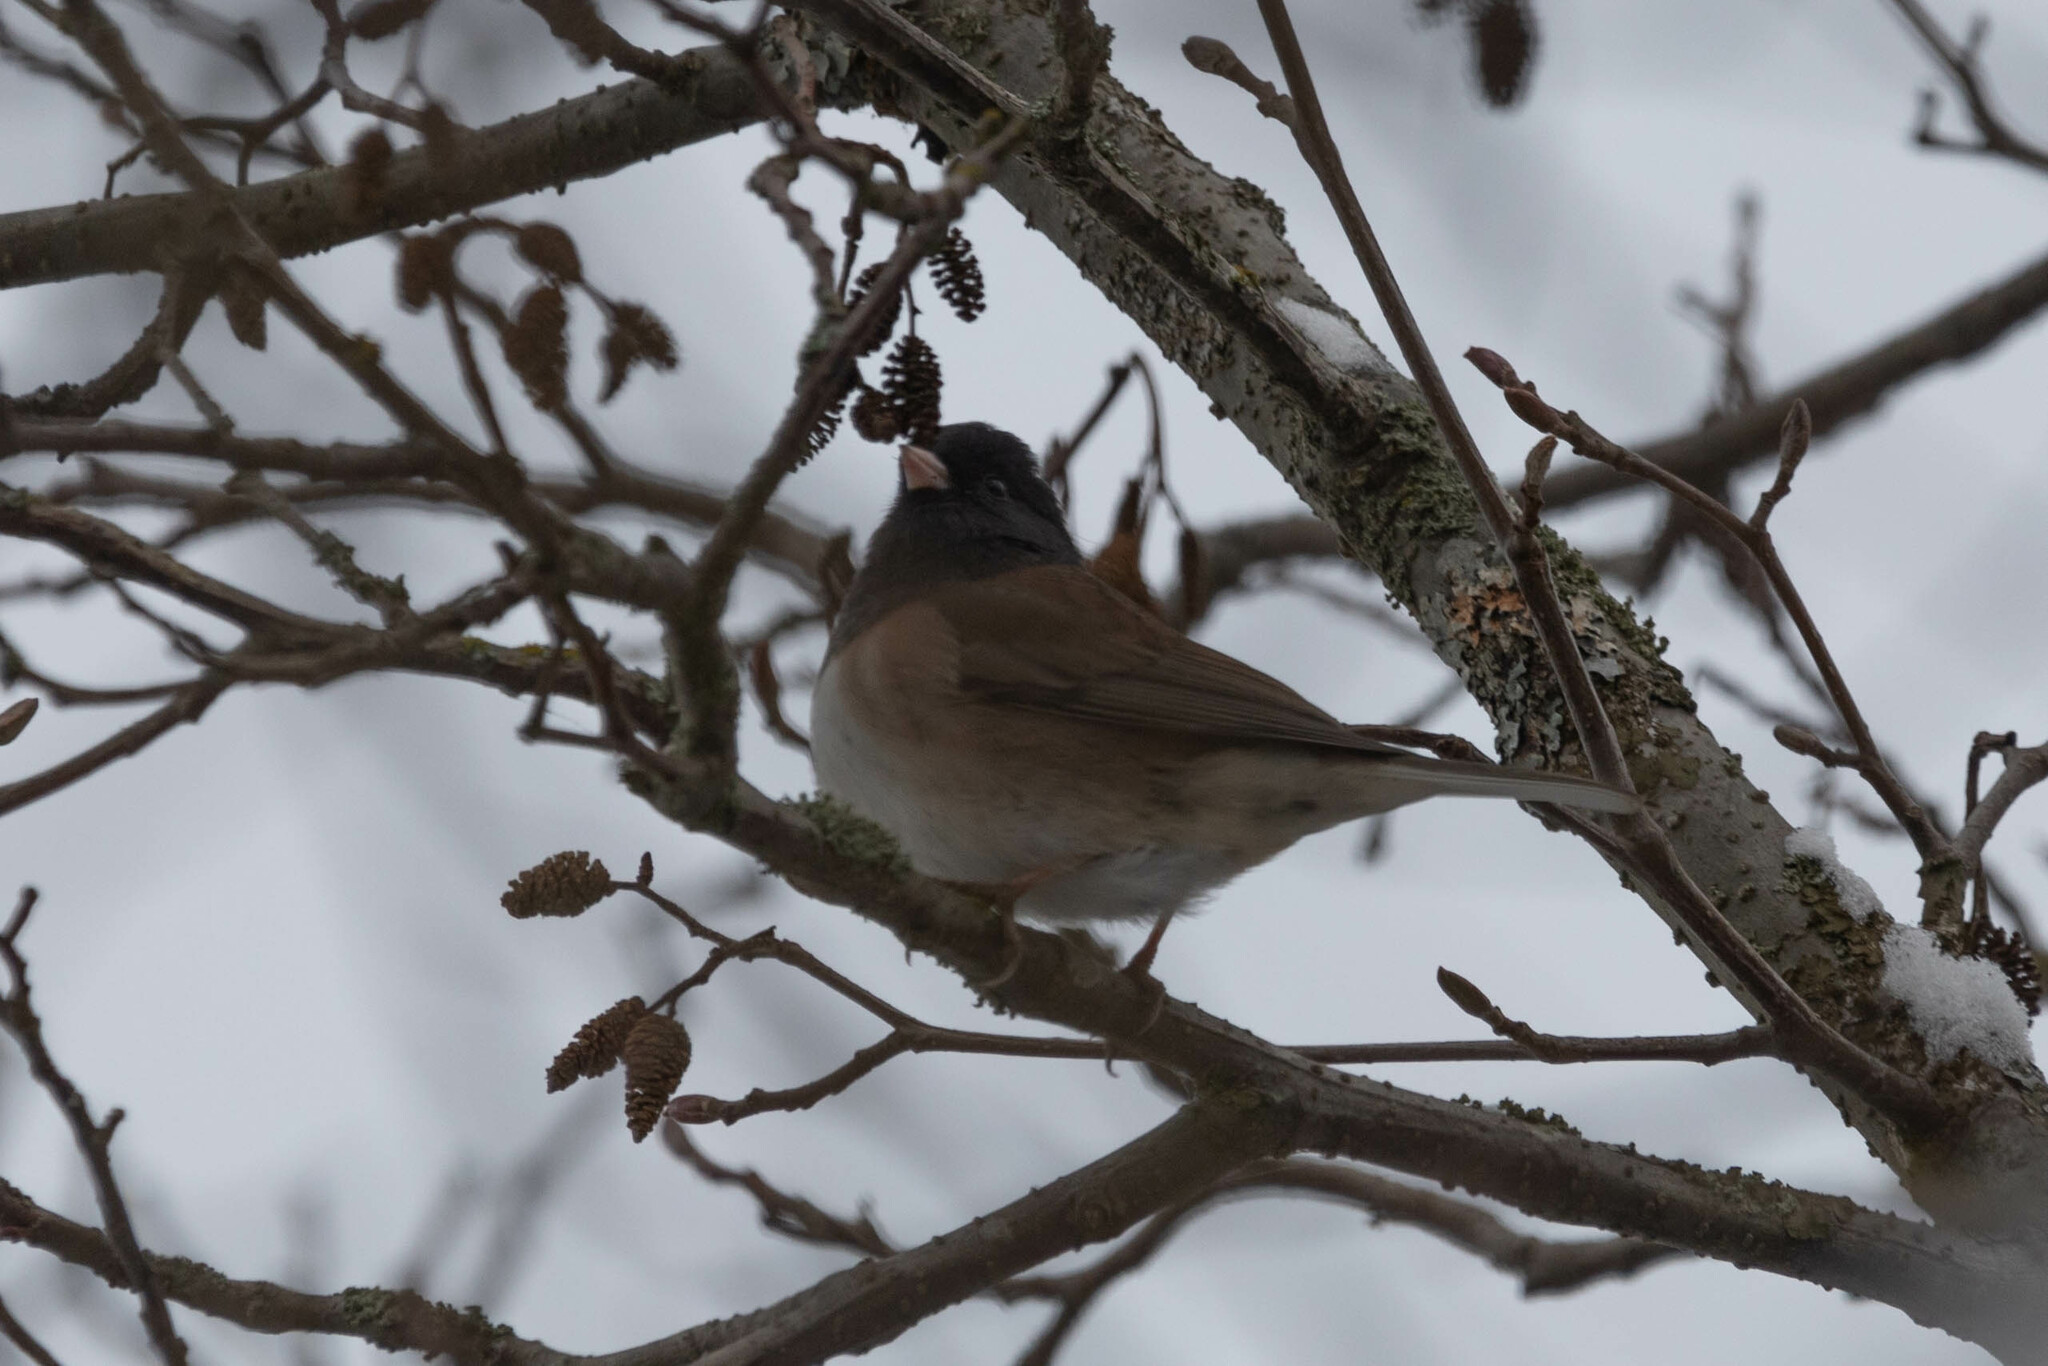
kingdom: Animalia
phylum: Chordata
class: Aves
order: Passeriformes
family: Passerellidae
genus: Junco
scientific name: Junco hyemalis
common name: Dark-eyed junco
